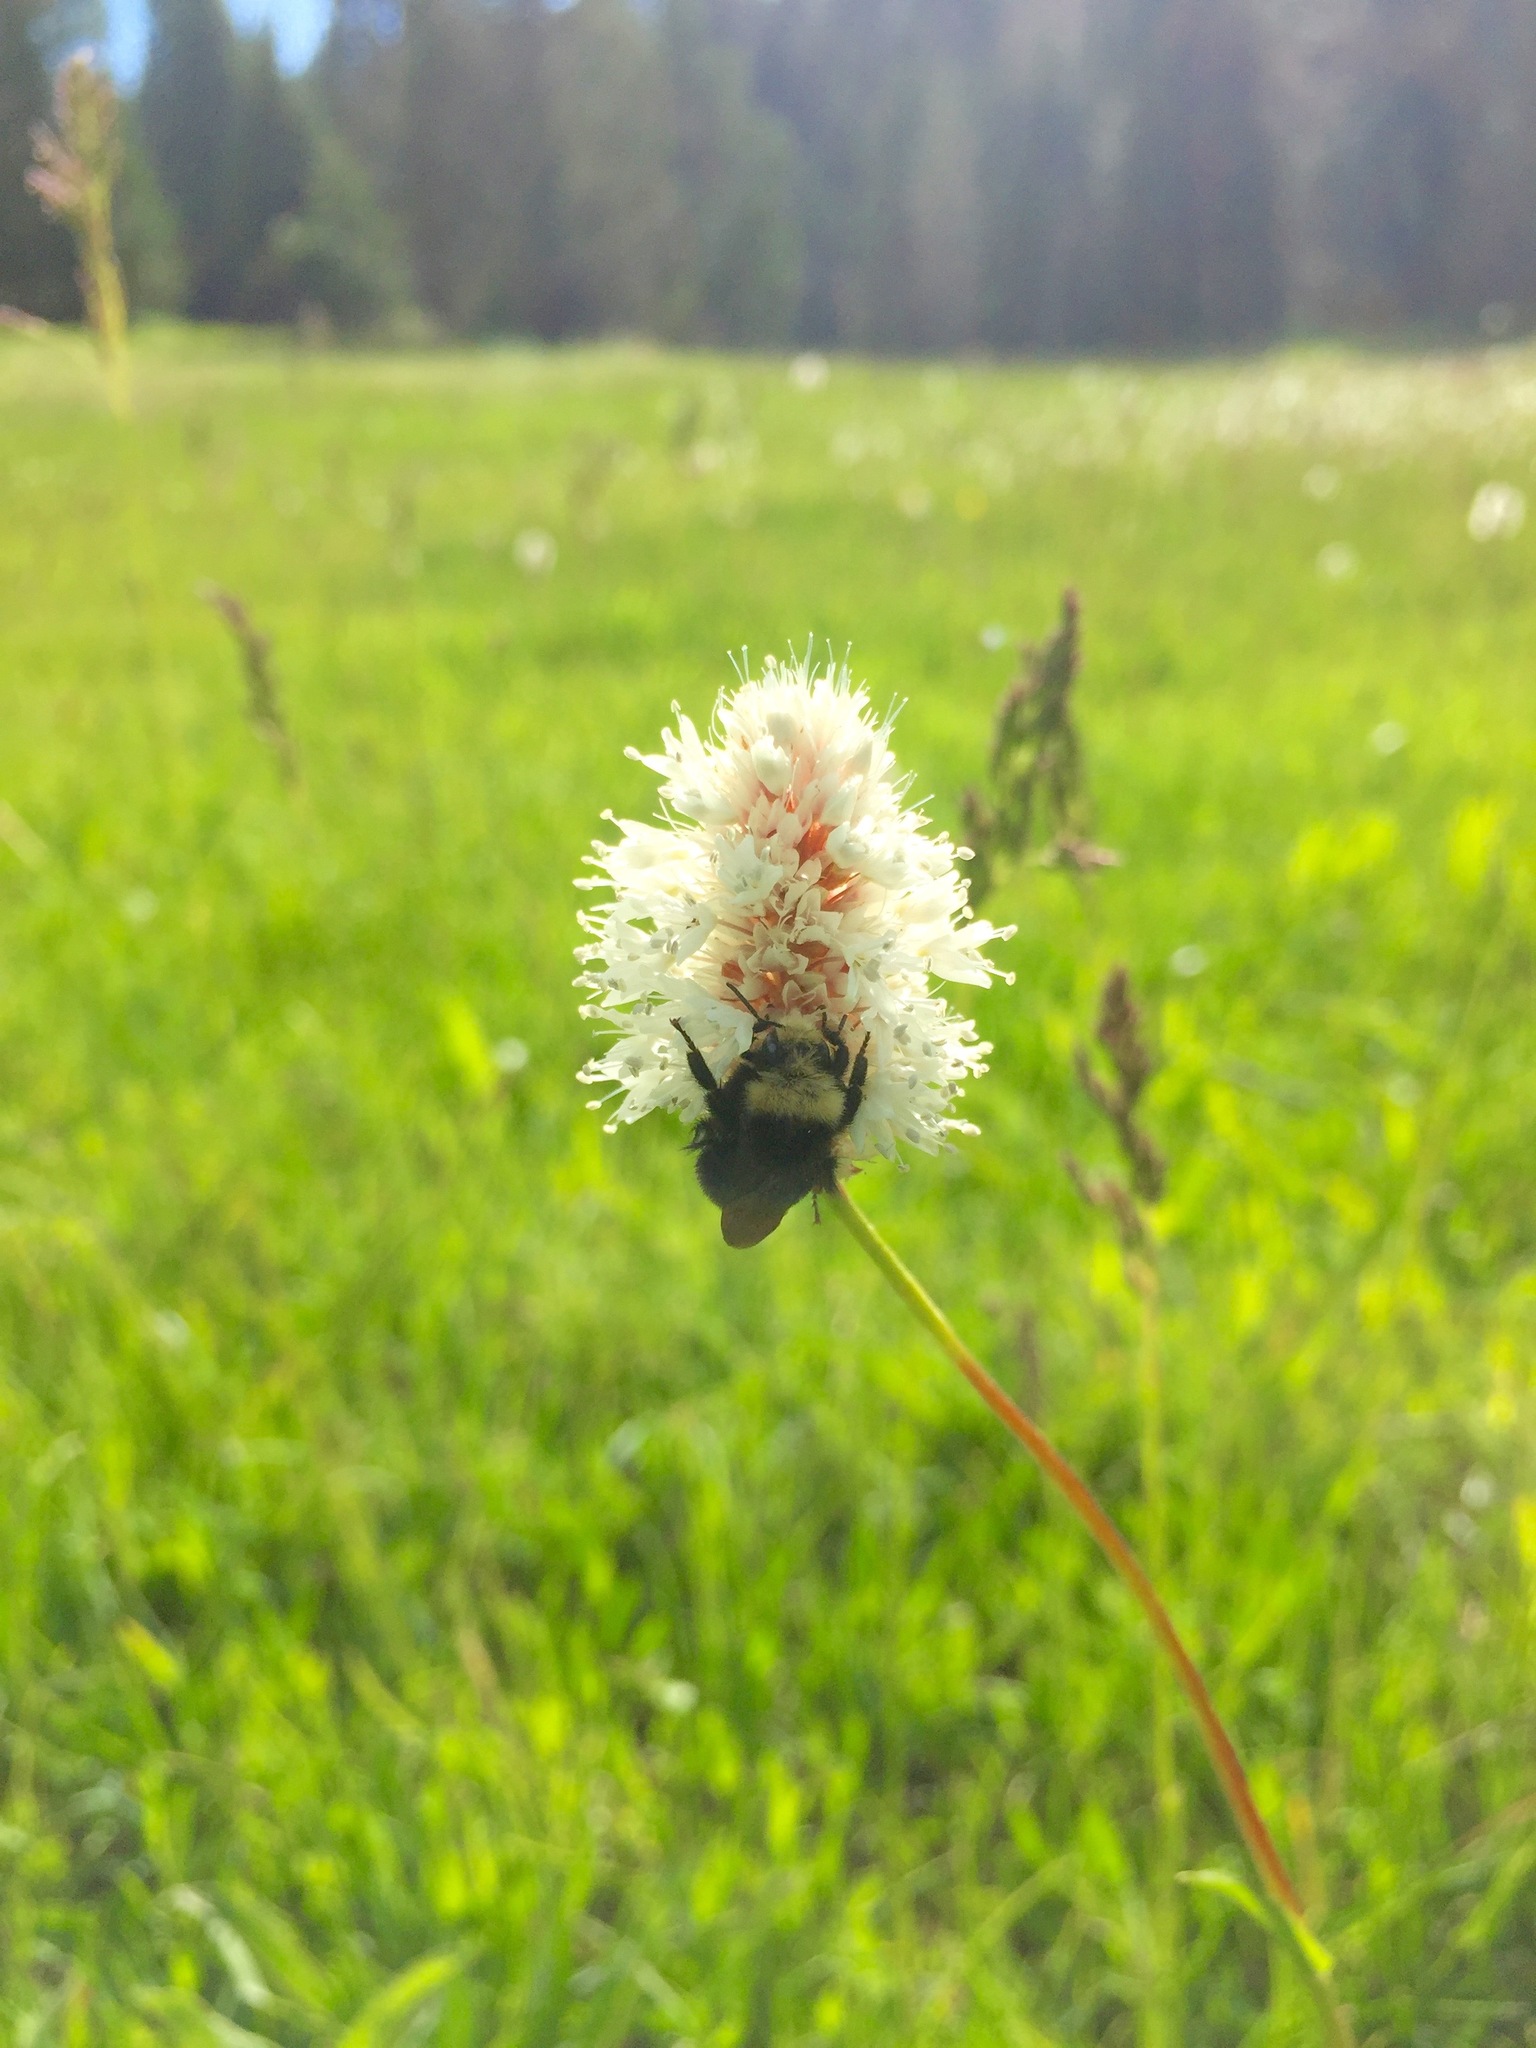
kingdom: Plantae
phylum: Tracheophyta
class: Magnoliopsida
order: Caryophyllales
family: Polygonaceae
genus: Bistorta
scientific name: Bistorta bistortoides
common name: American bistort
